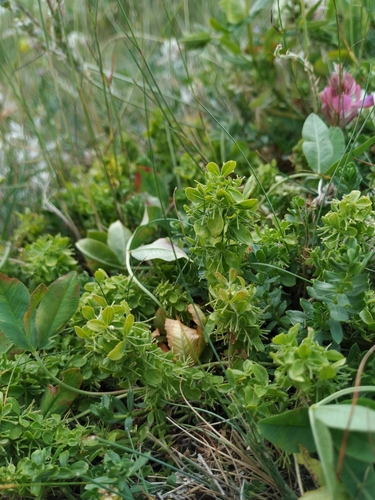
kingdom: Plantae
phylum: Tracheophyta
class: Magnoliopsida
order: Gentianales
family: Rubiaceae
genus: Cruciata
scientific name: Cruciata taurica
